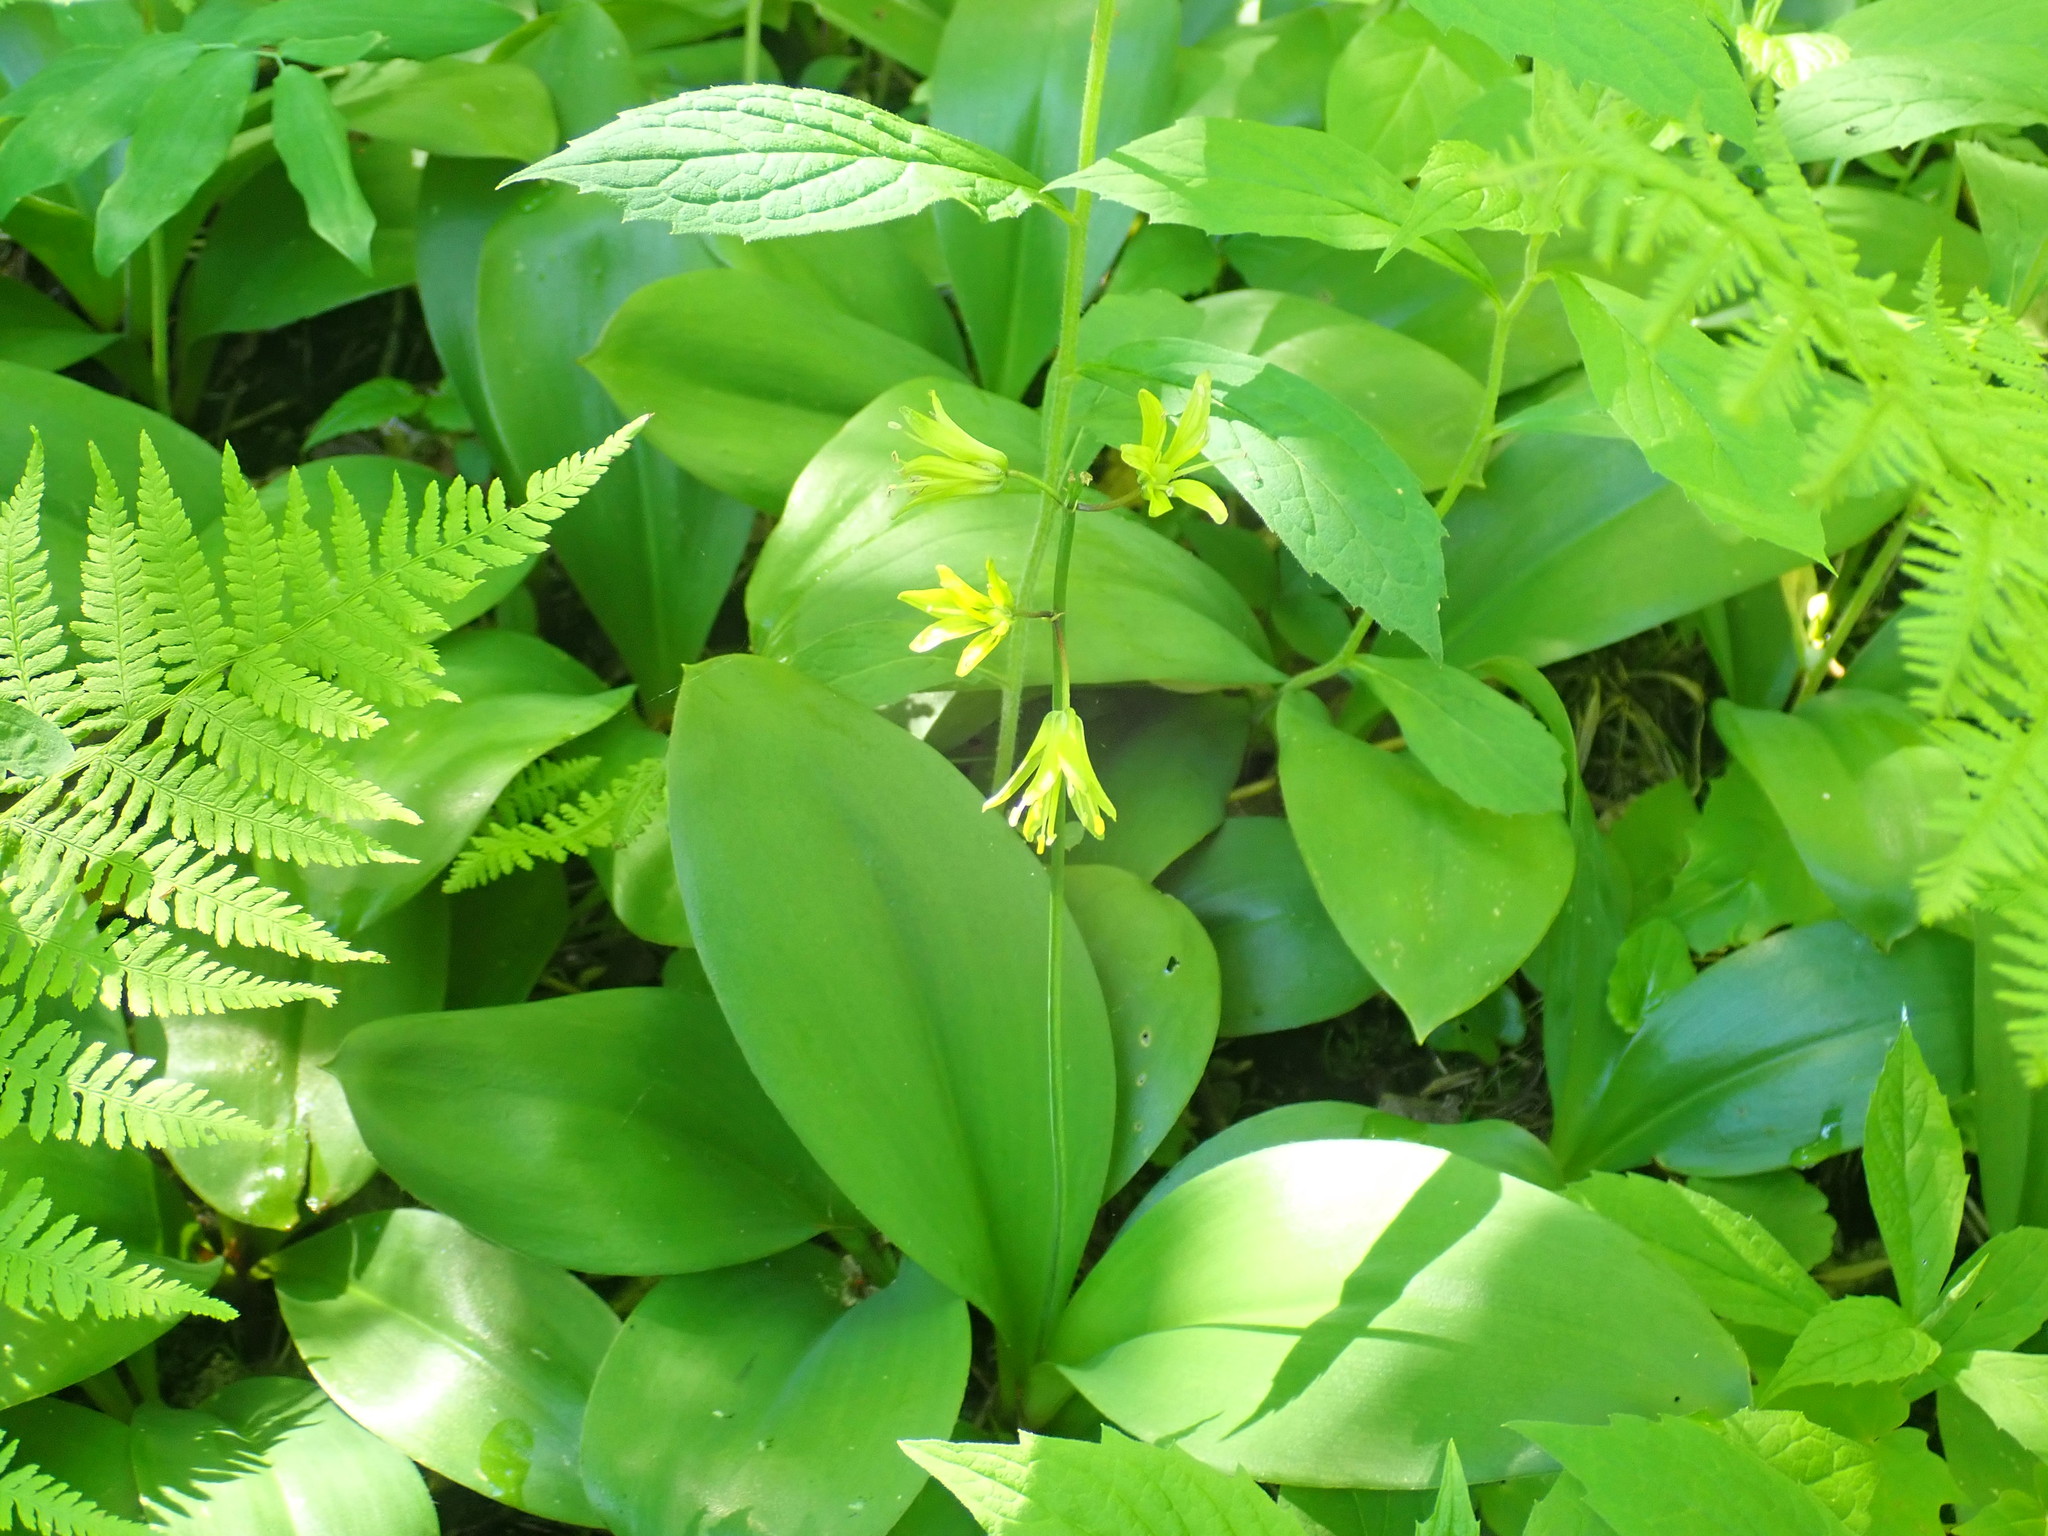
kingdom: Plantae
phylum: Tracheophyta
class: Liliopsida
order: Liliales
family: Liliaceae
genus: Clintonia
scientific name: Clintonia borealis
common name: Yellow clintonia
